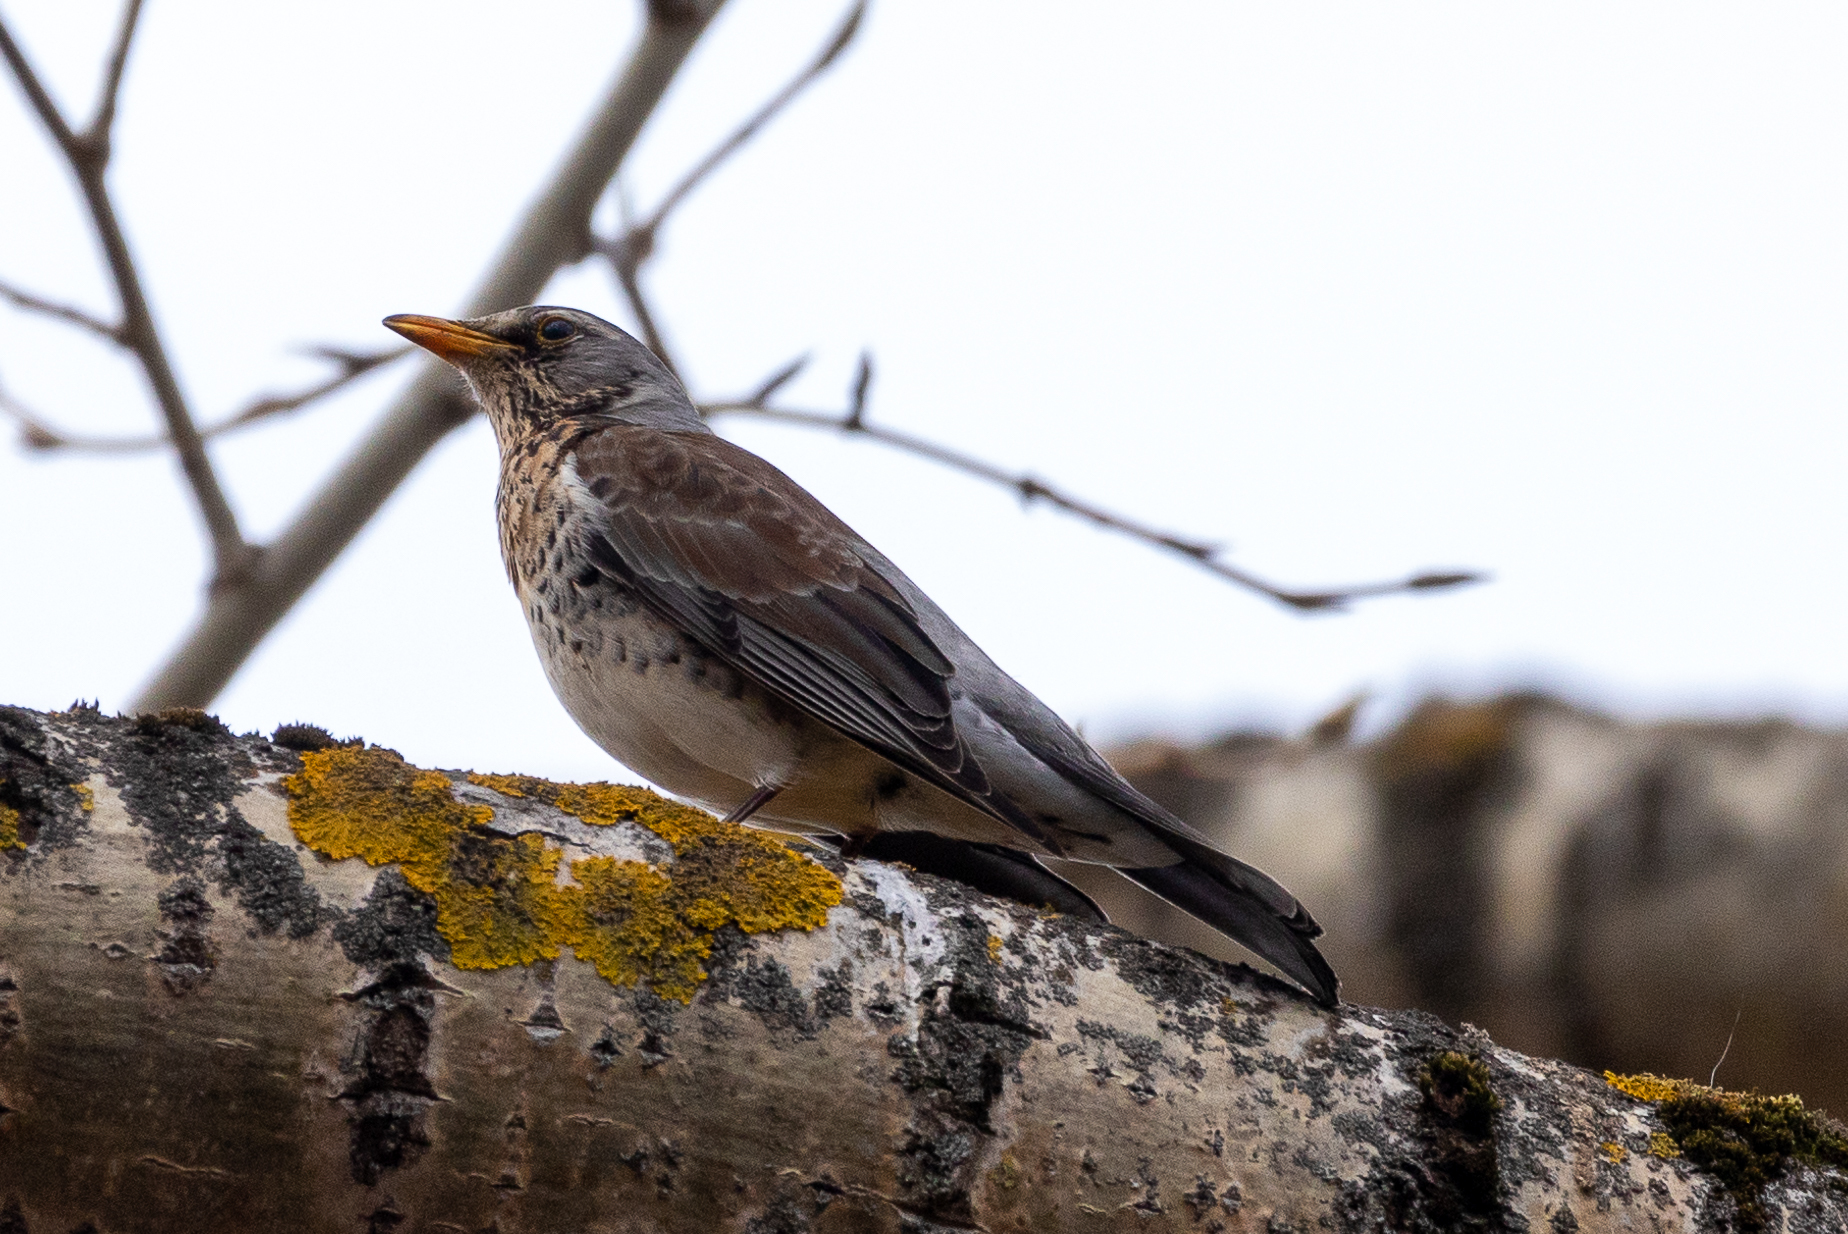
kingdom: Animalia
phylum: Chordata
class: Aves
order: Passeriformes
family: Turdidae
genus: Turdus
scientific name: Turdus pilaris
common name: Fieldfare
